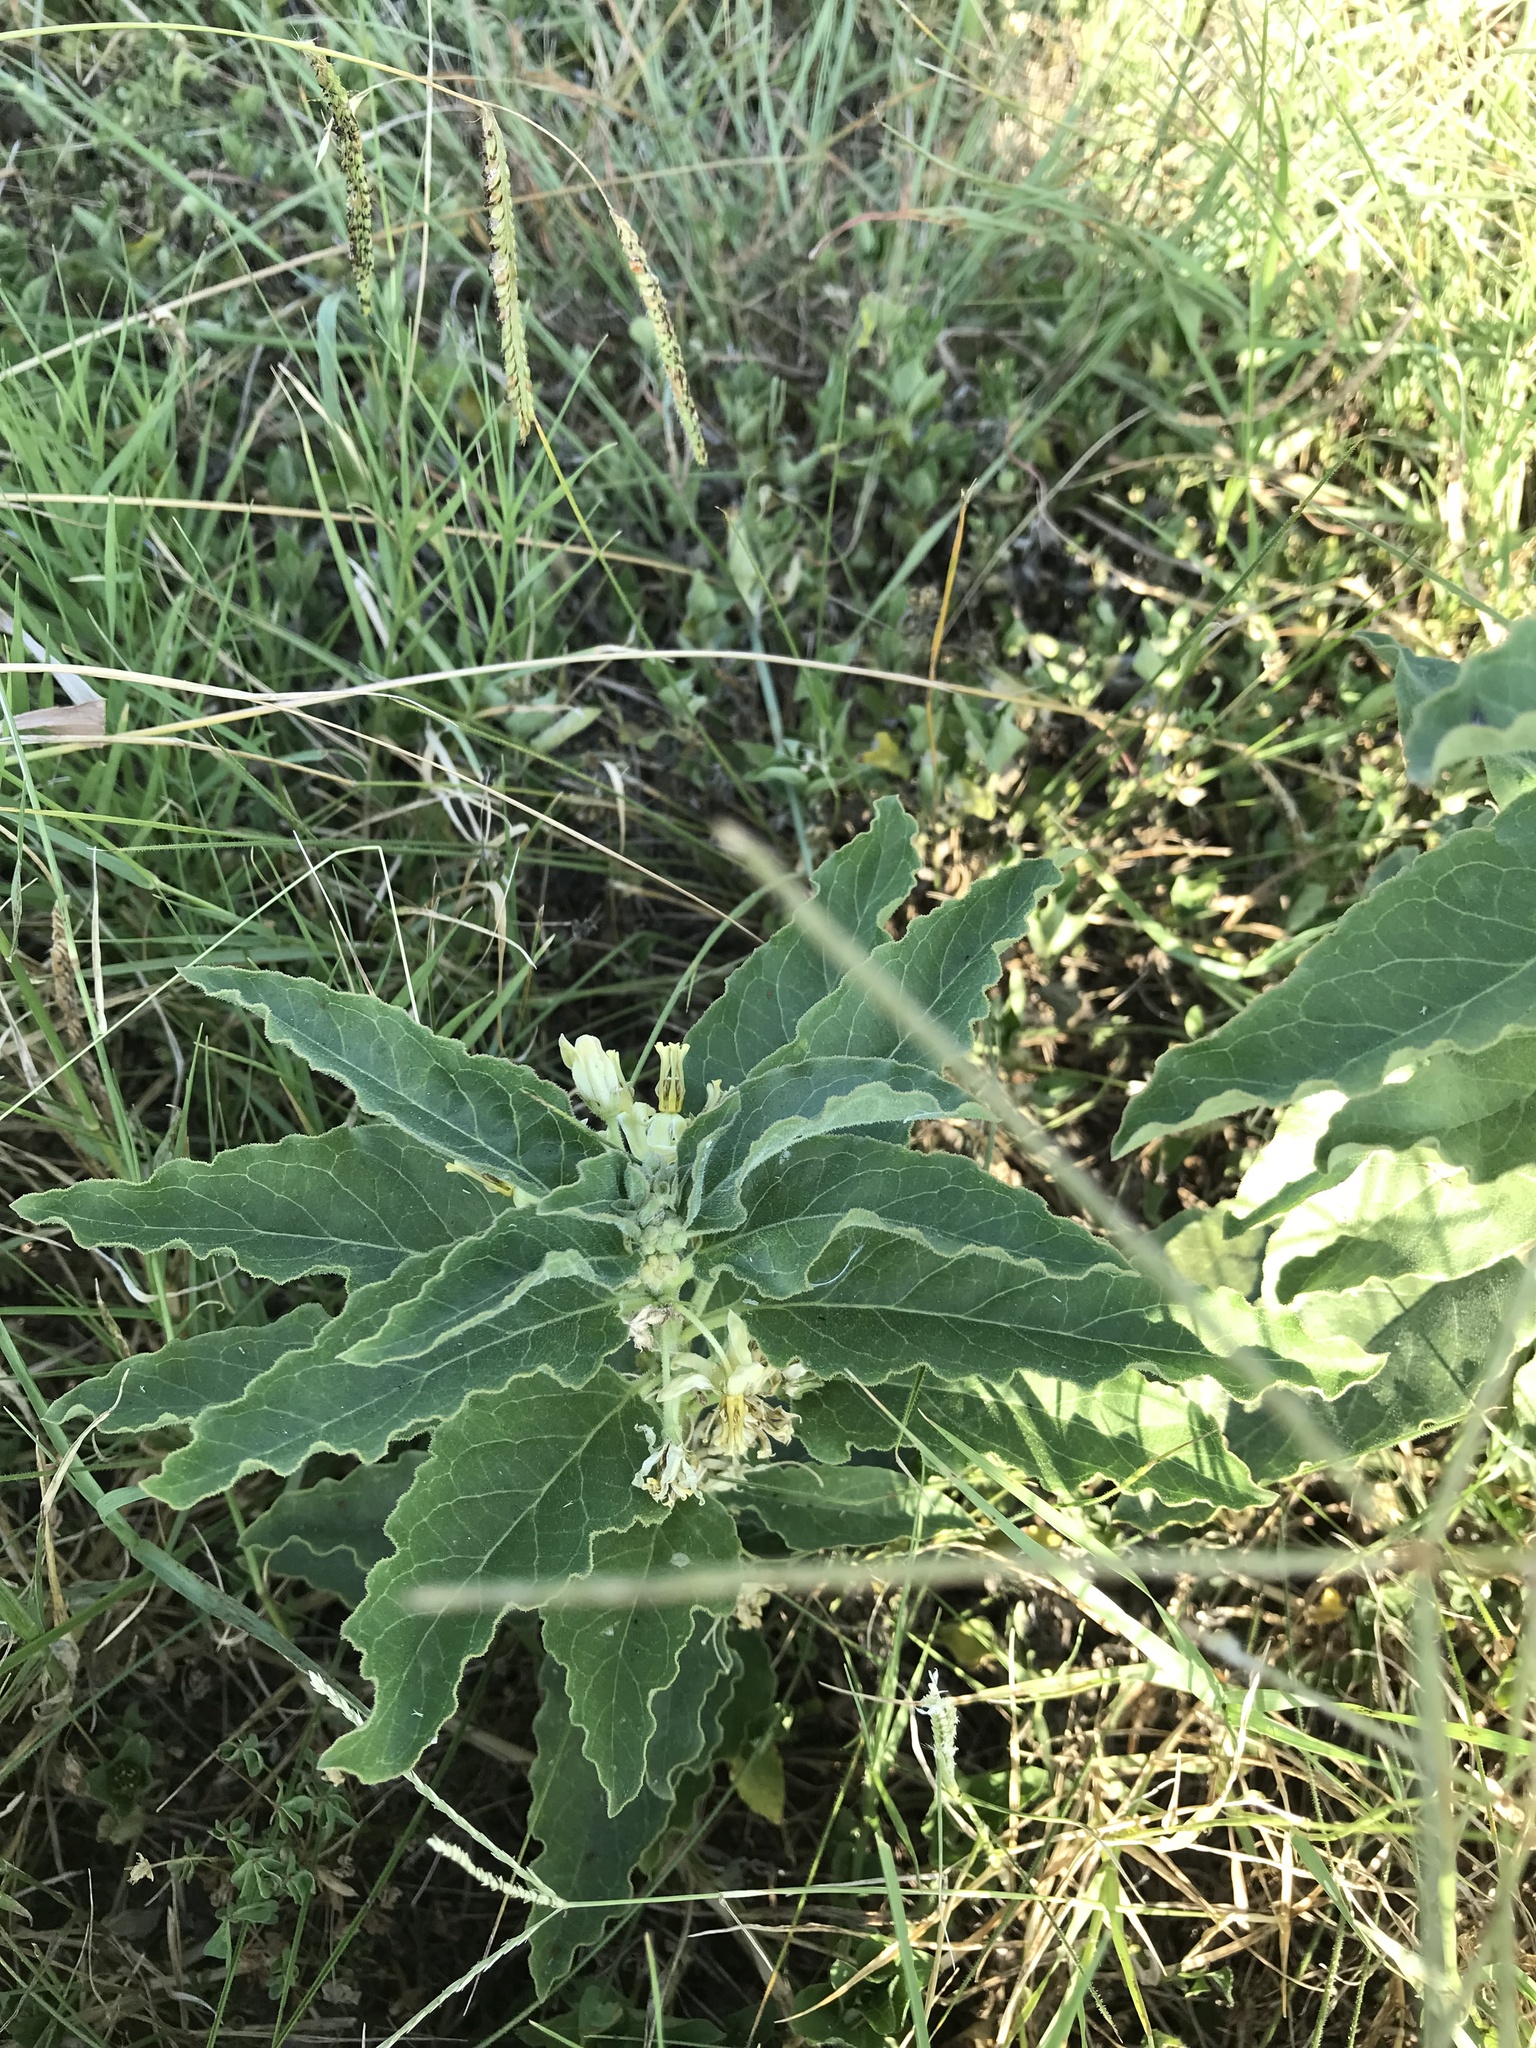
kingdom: Plantae
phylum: Tracheophyta
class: Magnoliopsida
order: Gentianales
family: Apocynaceae
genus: Asclepias
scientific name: Asclepias oenotheroides
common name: Zizotes milkweed
